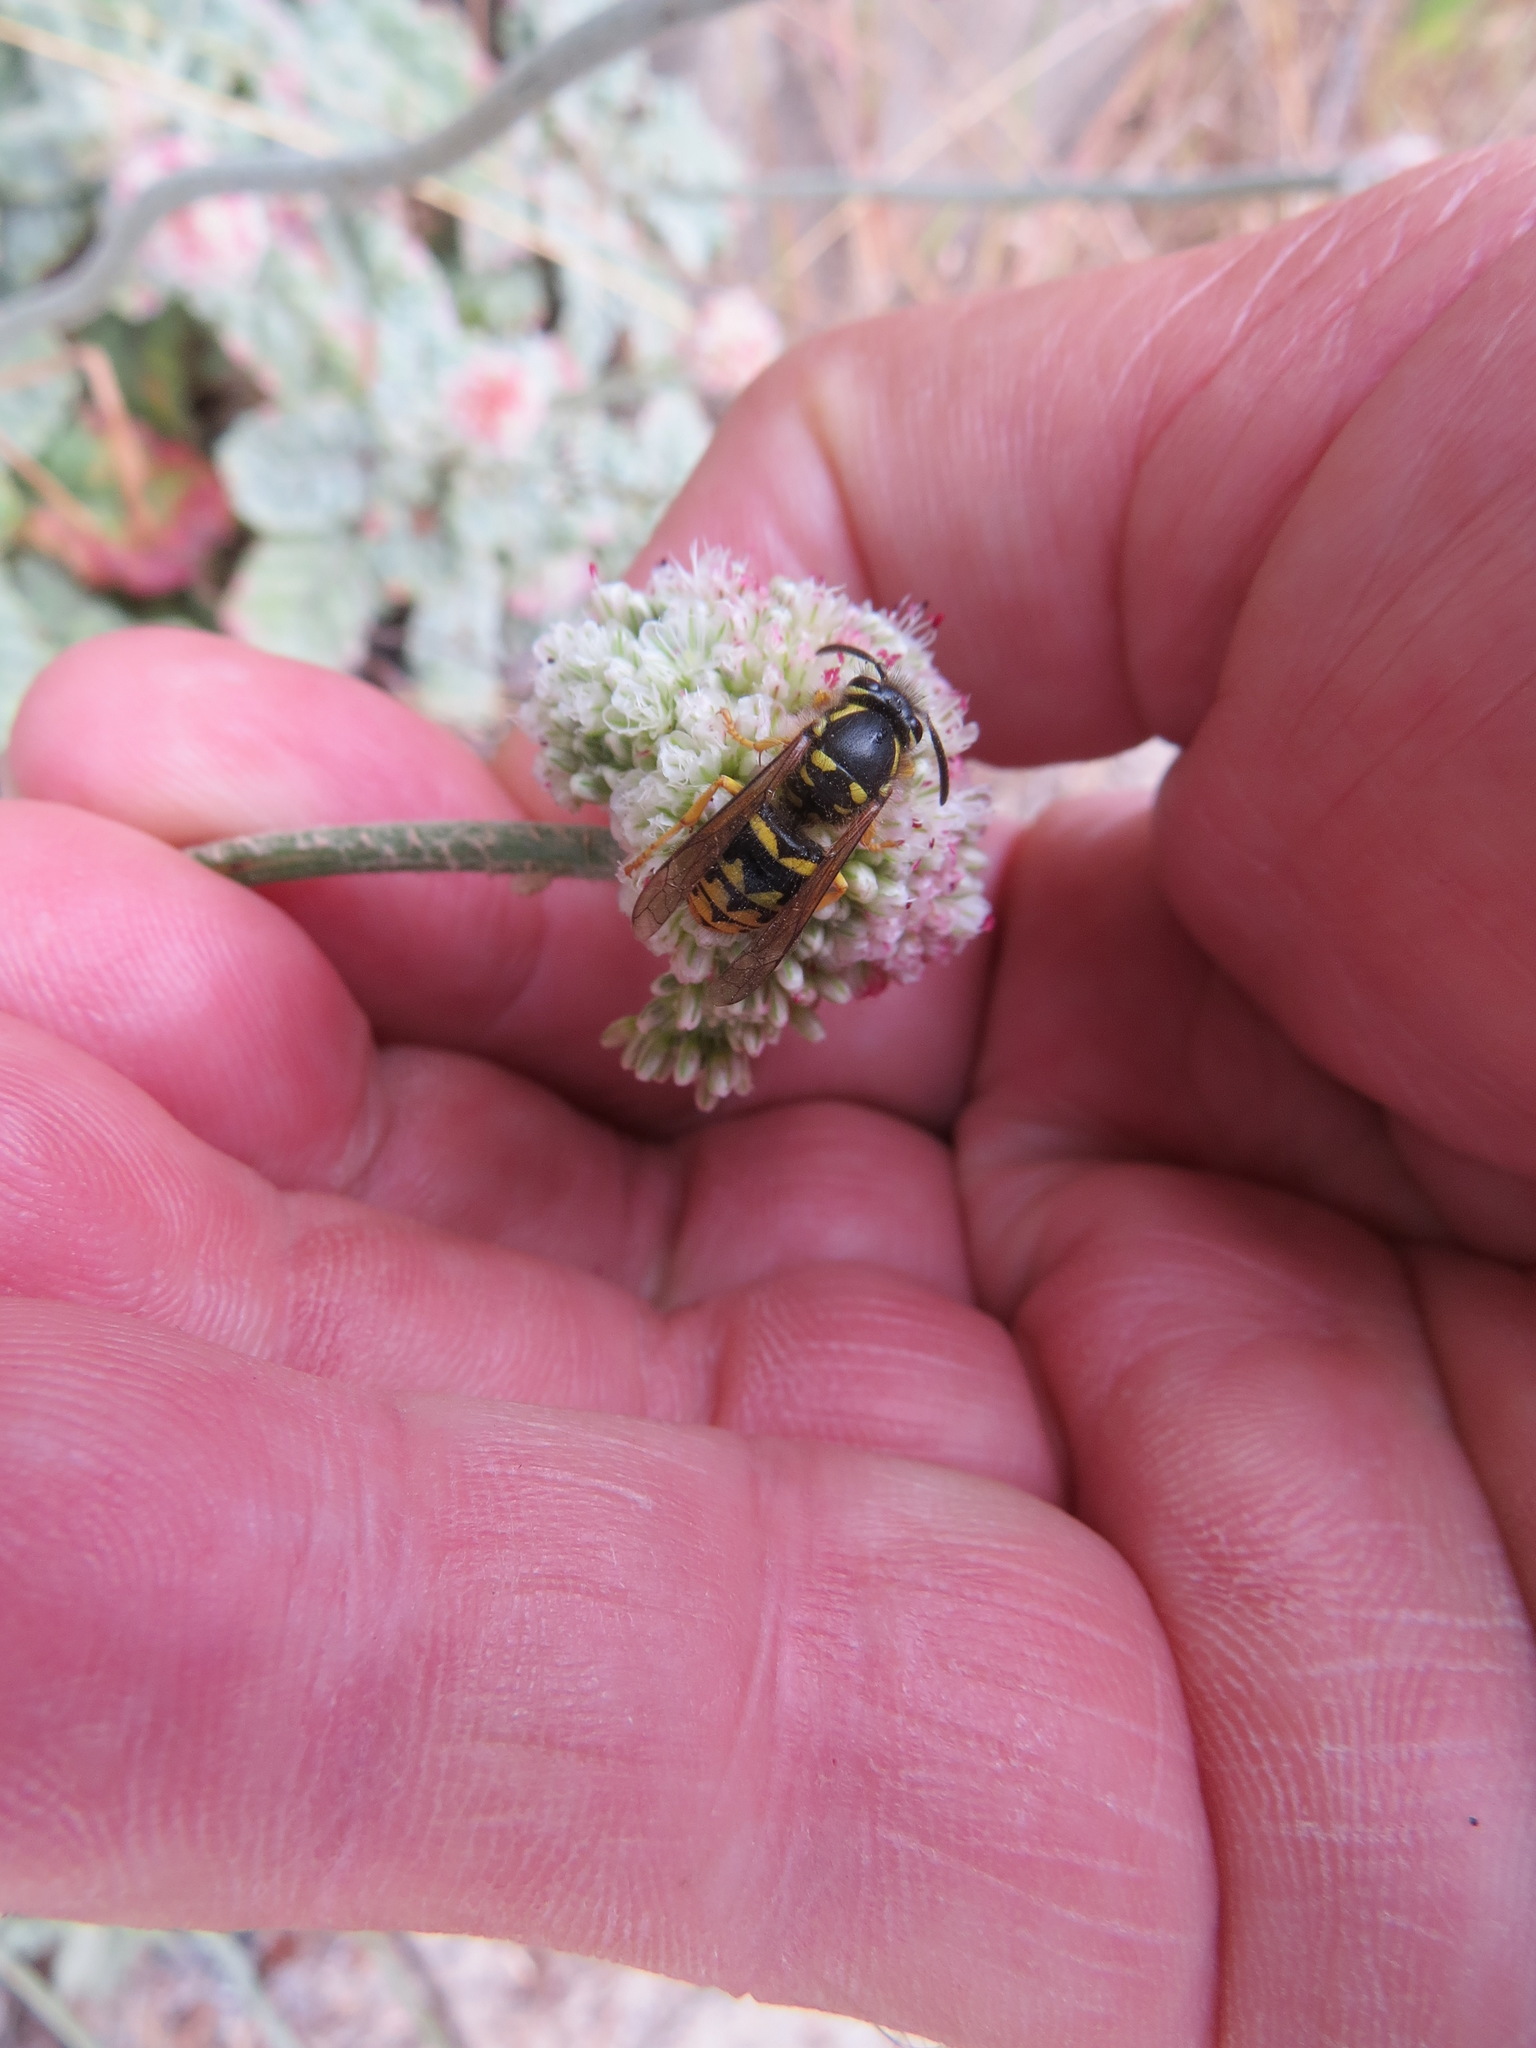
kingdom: Animalia
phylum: Arthropoda
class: Insecta
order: Hymenoptera
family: Vespidae
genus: Dolichovespula
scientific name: Dolichovespula arenaria
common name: Aerial yellowjacket
